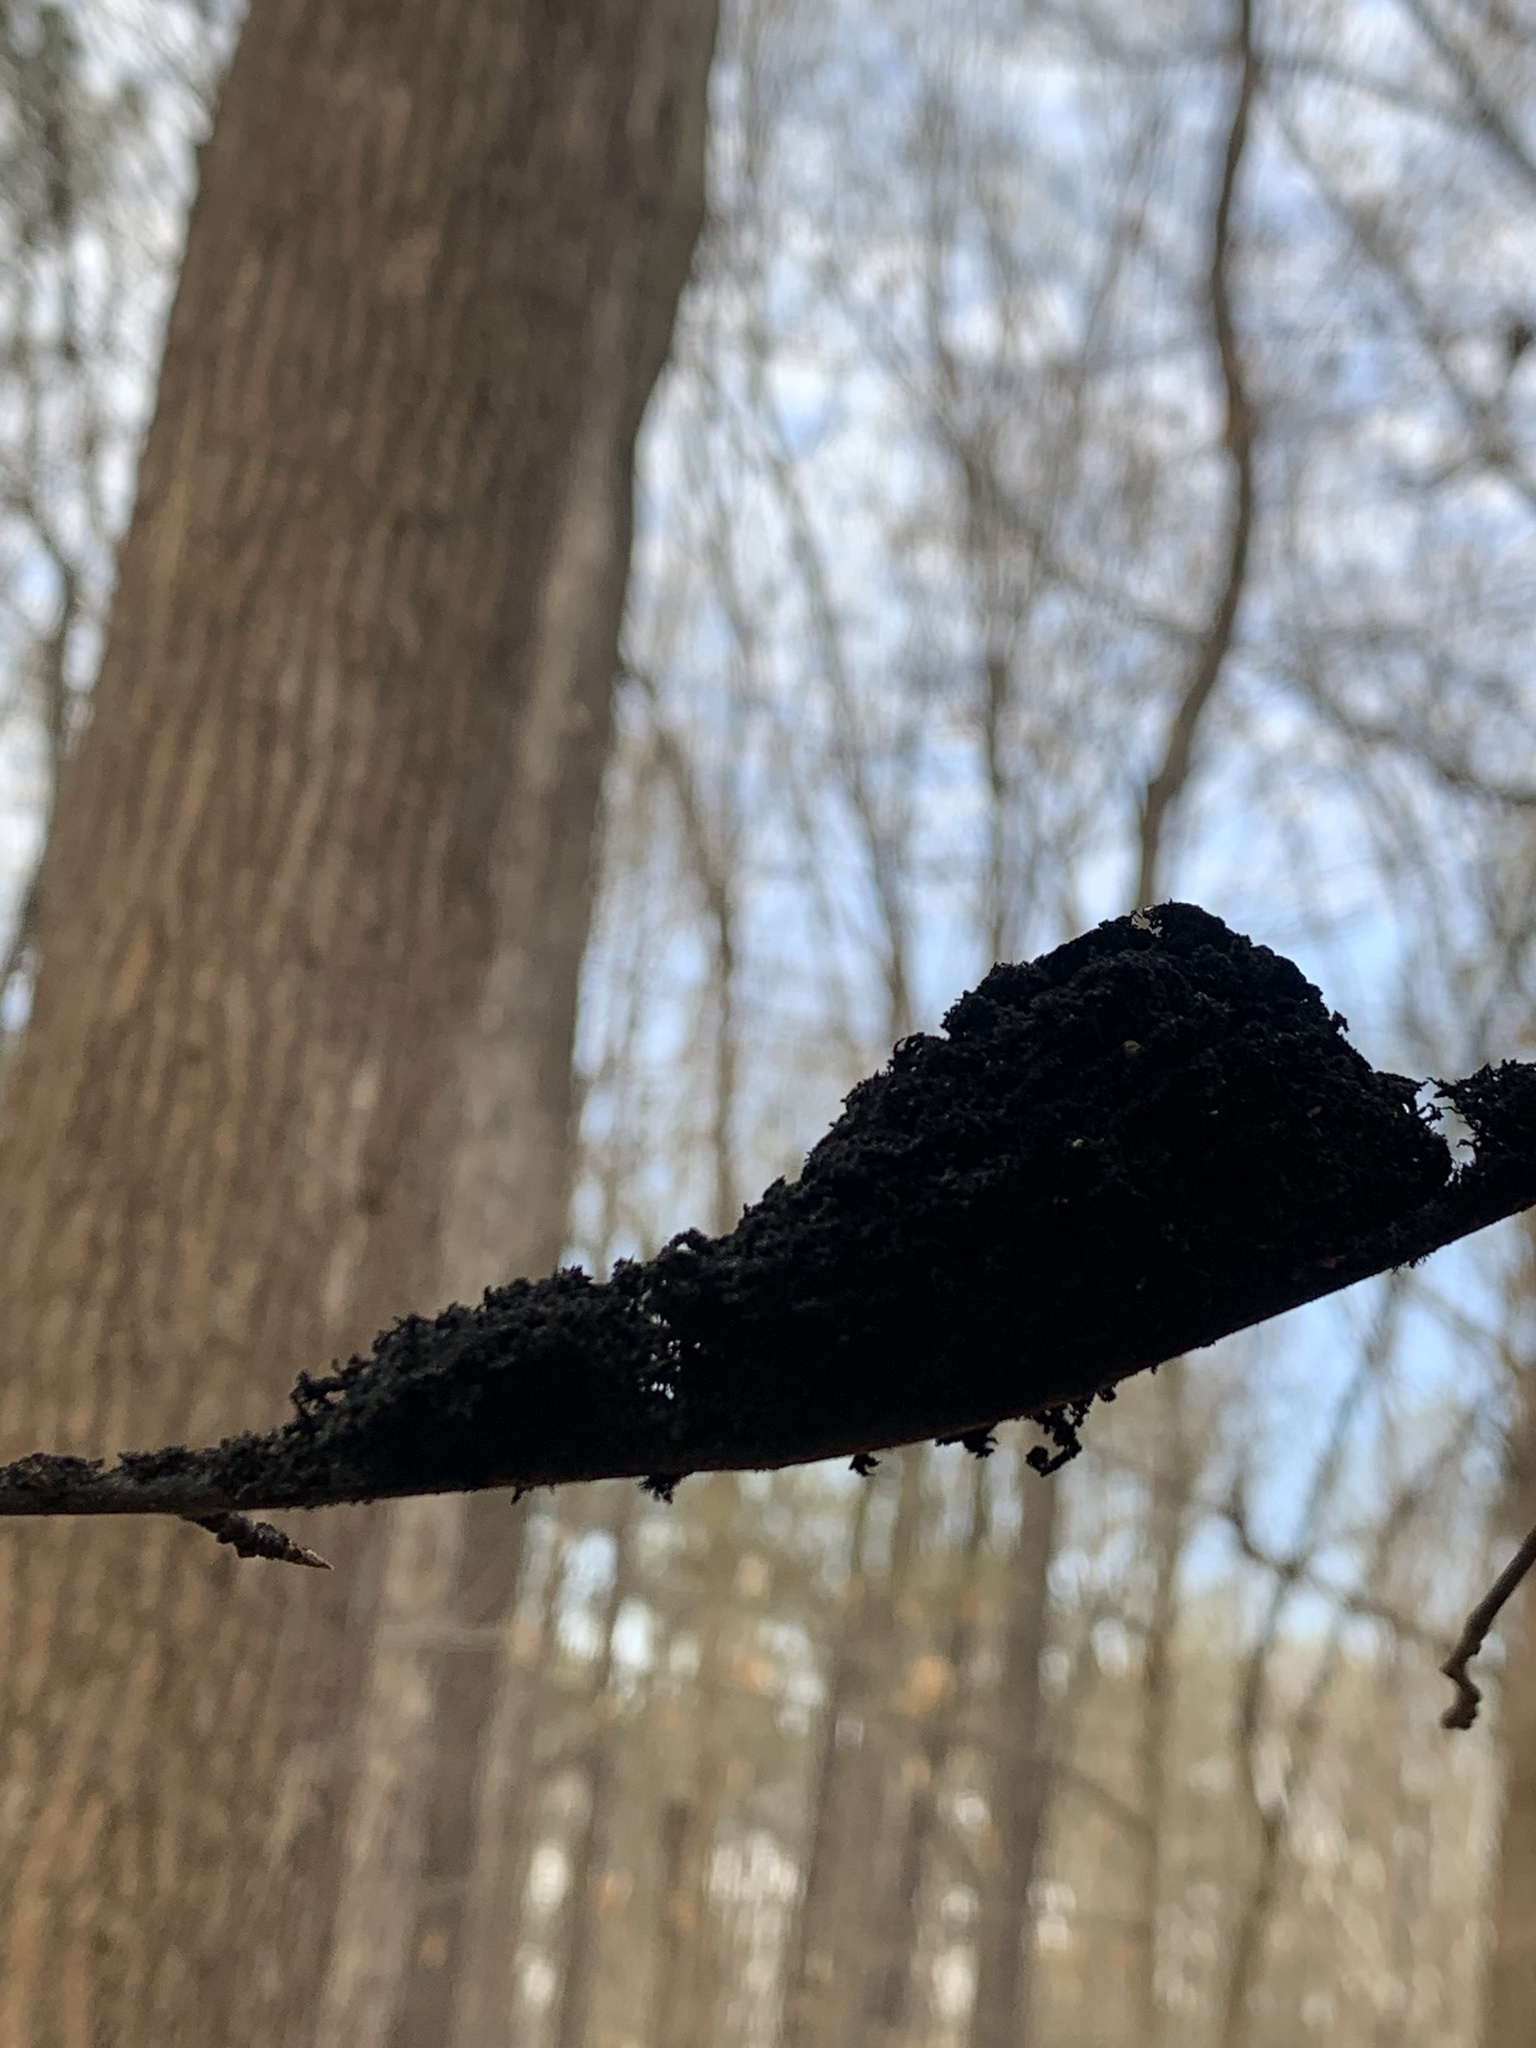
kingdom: Fungi
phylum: Ascomycota
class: Dothideomycetes
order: Capnodiales
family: Capnodiaceae
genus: Scorias
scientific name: Scorias spongiosa
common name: Black sooty mold
